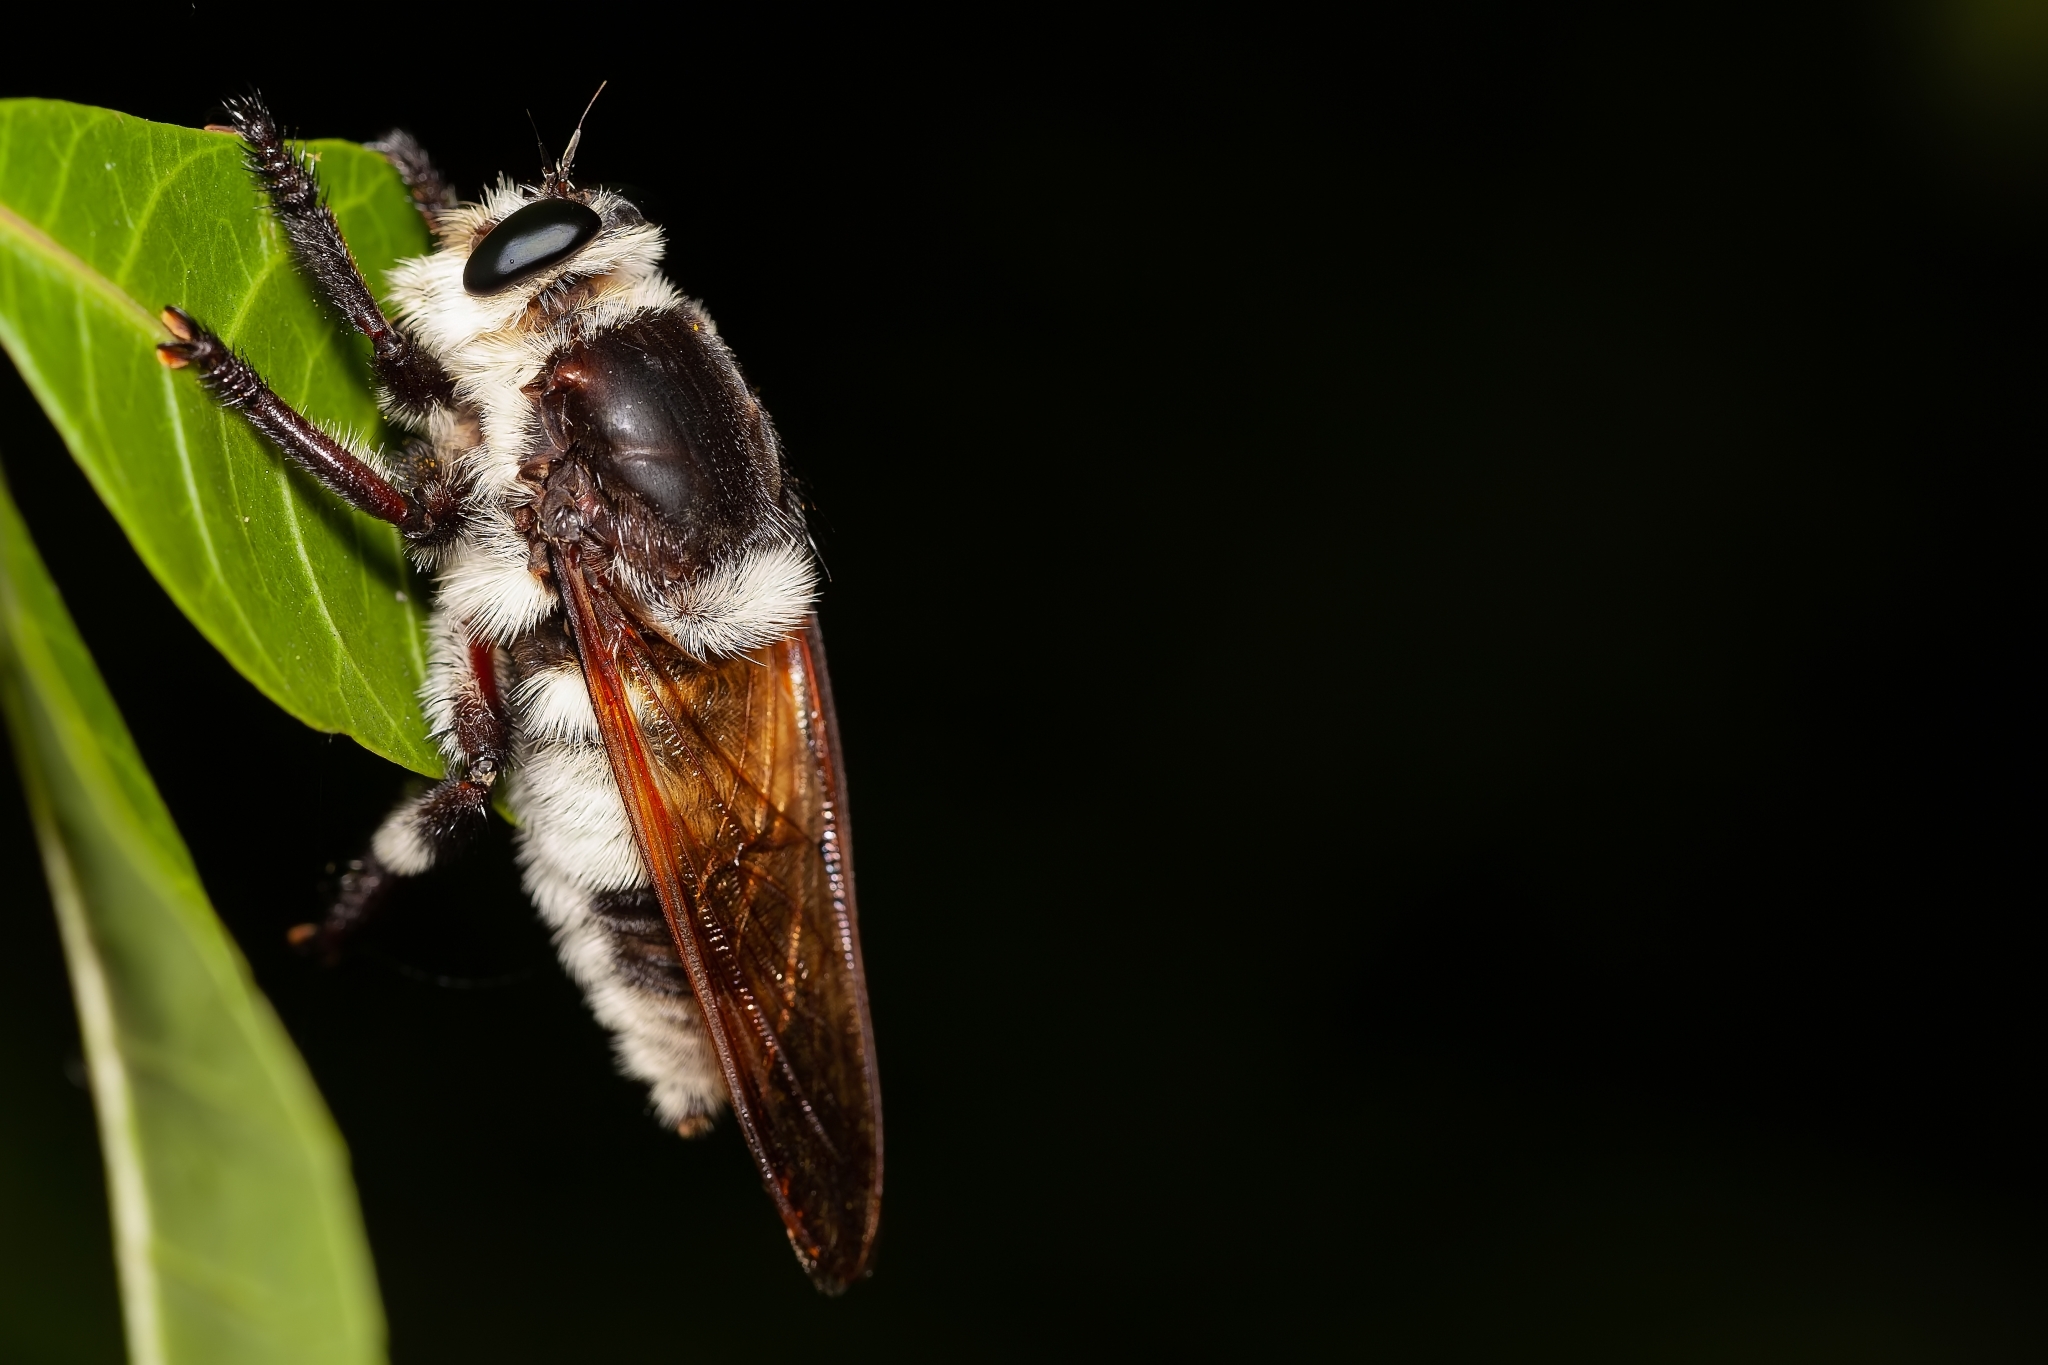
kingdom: Animalia
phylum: Arthropoda
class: Insecta
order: Diptera
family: Asilidae
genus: Mallophora
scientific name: Mallophora bomboides
